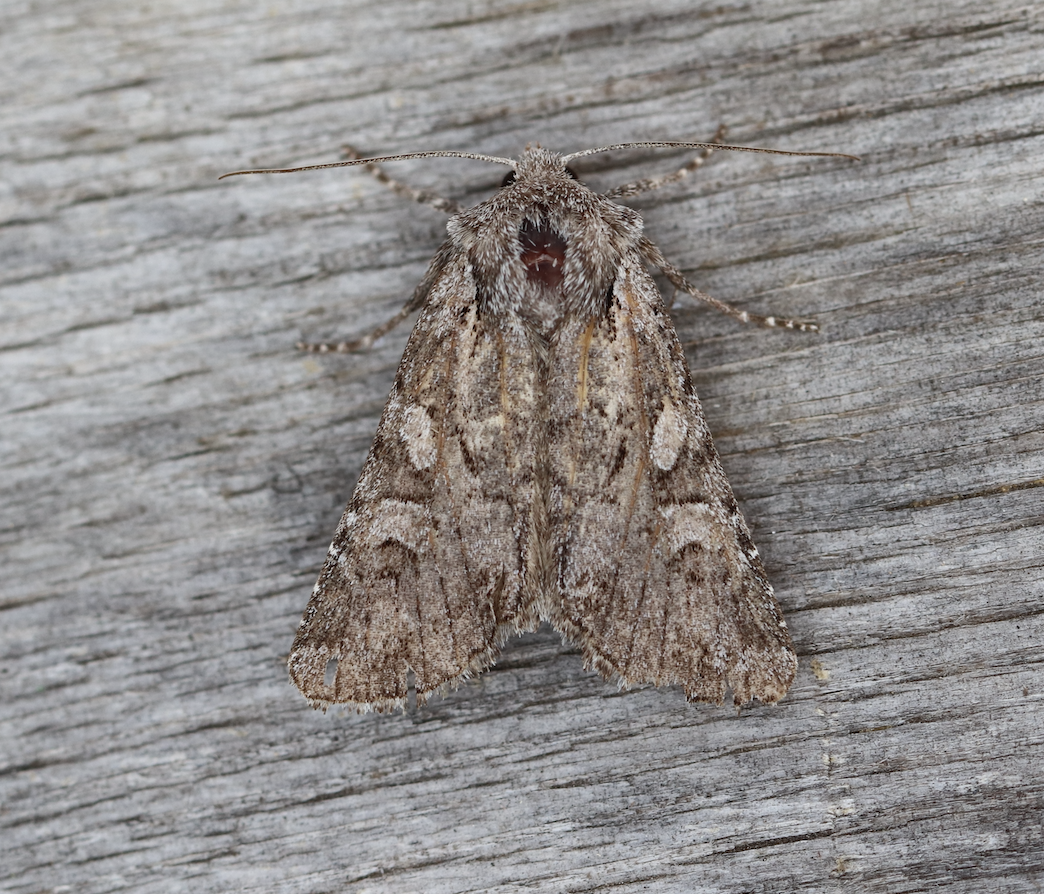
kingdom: Animalia
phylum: Arthropoda
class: Insecta
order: Lepidoptera
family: Noctuidae
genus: Lasionycta
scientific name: Lasionycta proxima
